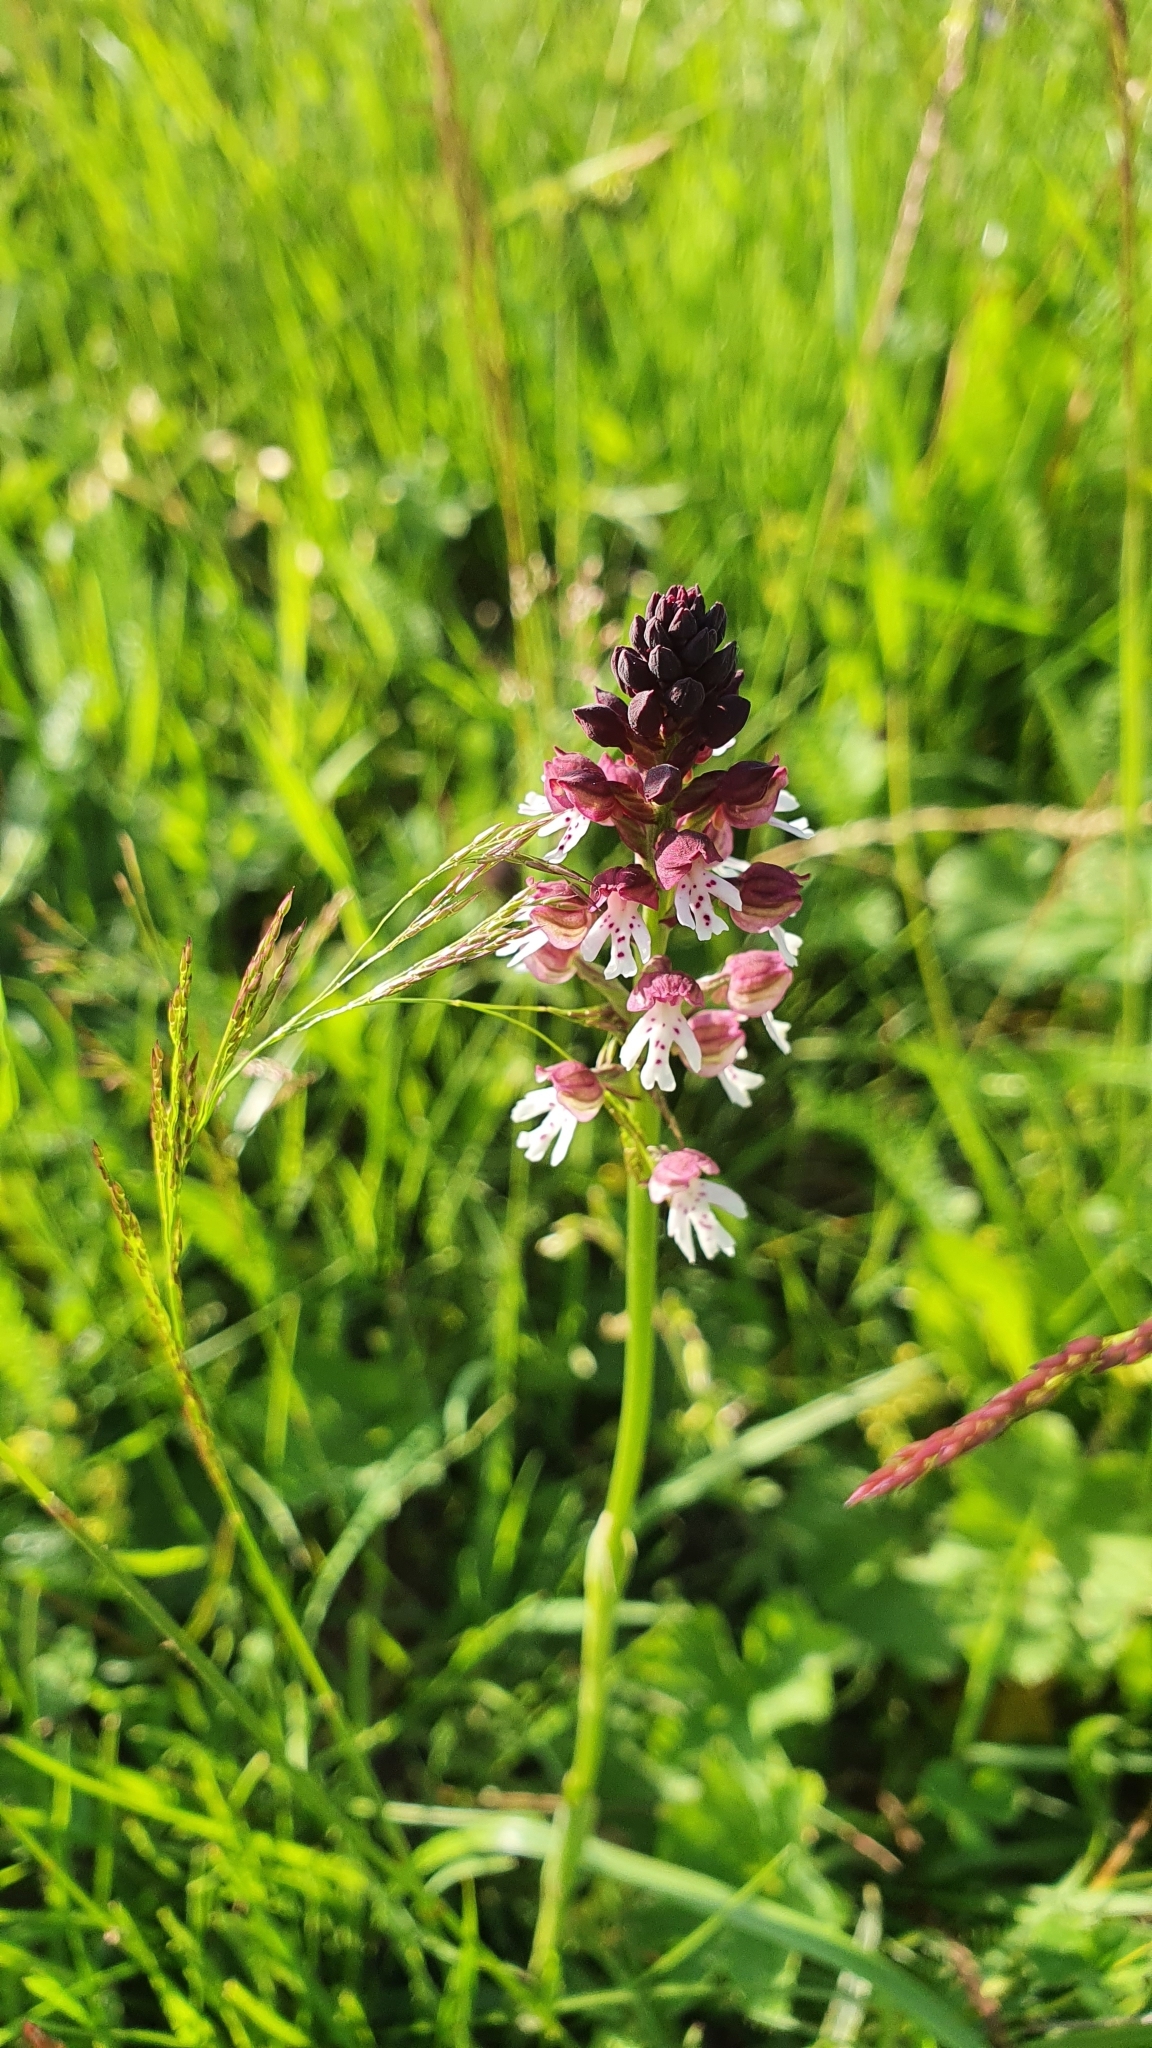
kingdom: Plantae
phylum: Tracheophyta
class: Liliopsida
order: Asparagales
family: Orchidaceae
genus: Neotinea
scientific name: Neotinea ustulata
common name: Burnt orchid
